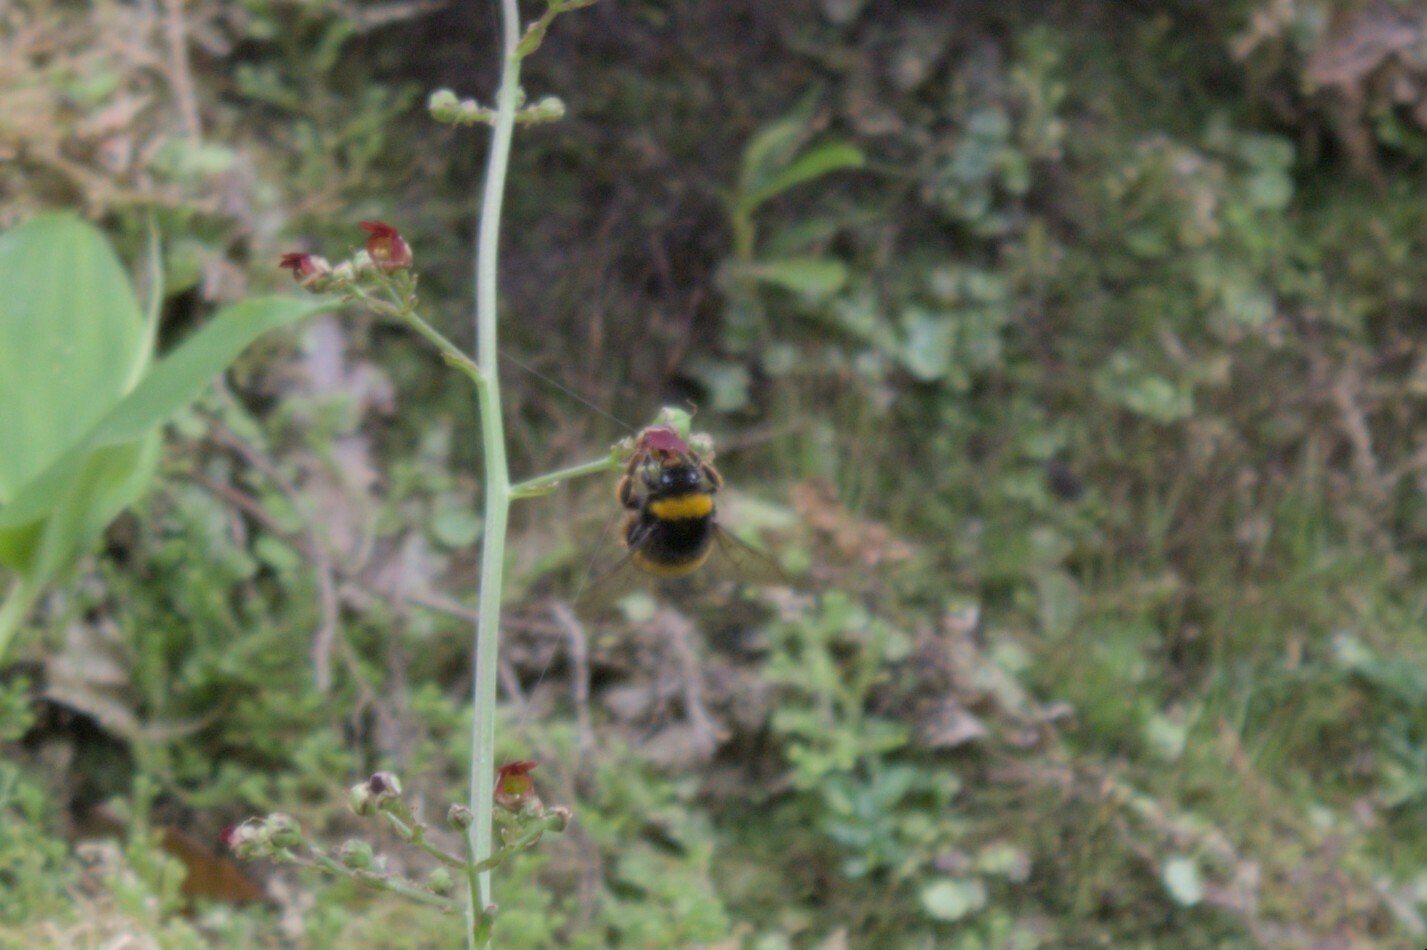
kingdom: Animalia
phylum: Arthropoda
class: Insecta
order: Hymenoptera
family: Apidae
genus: Bombus
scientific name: Bombus terrestris
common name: Buff-tailed bumblebee
